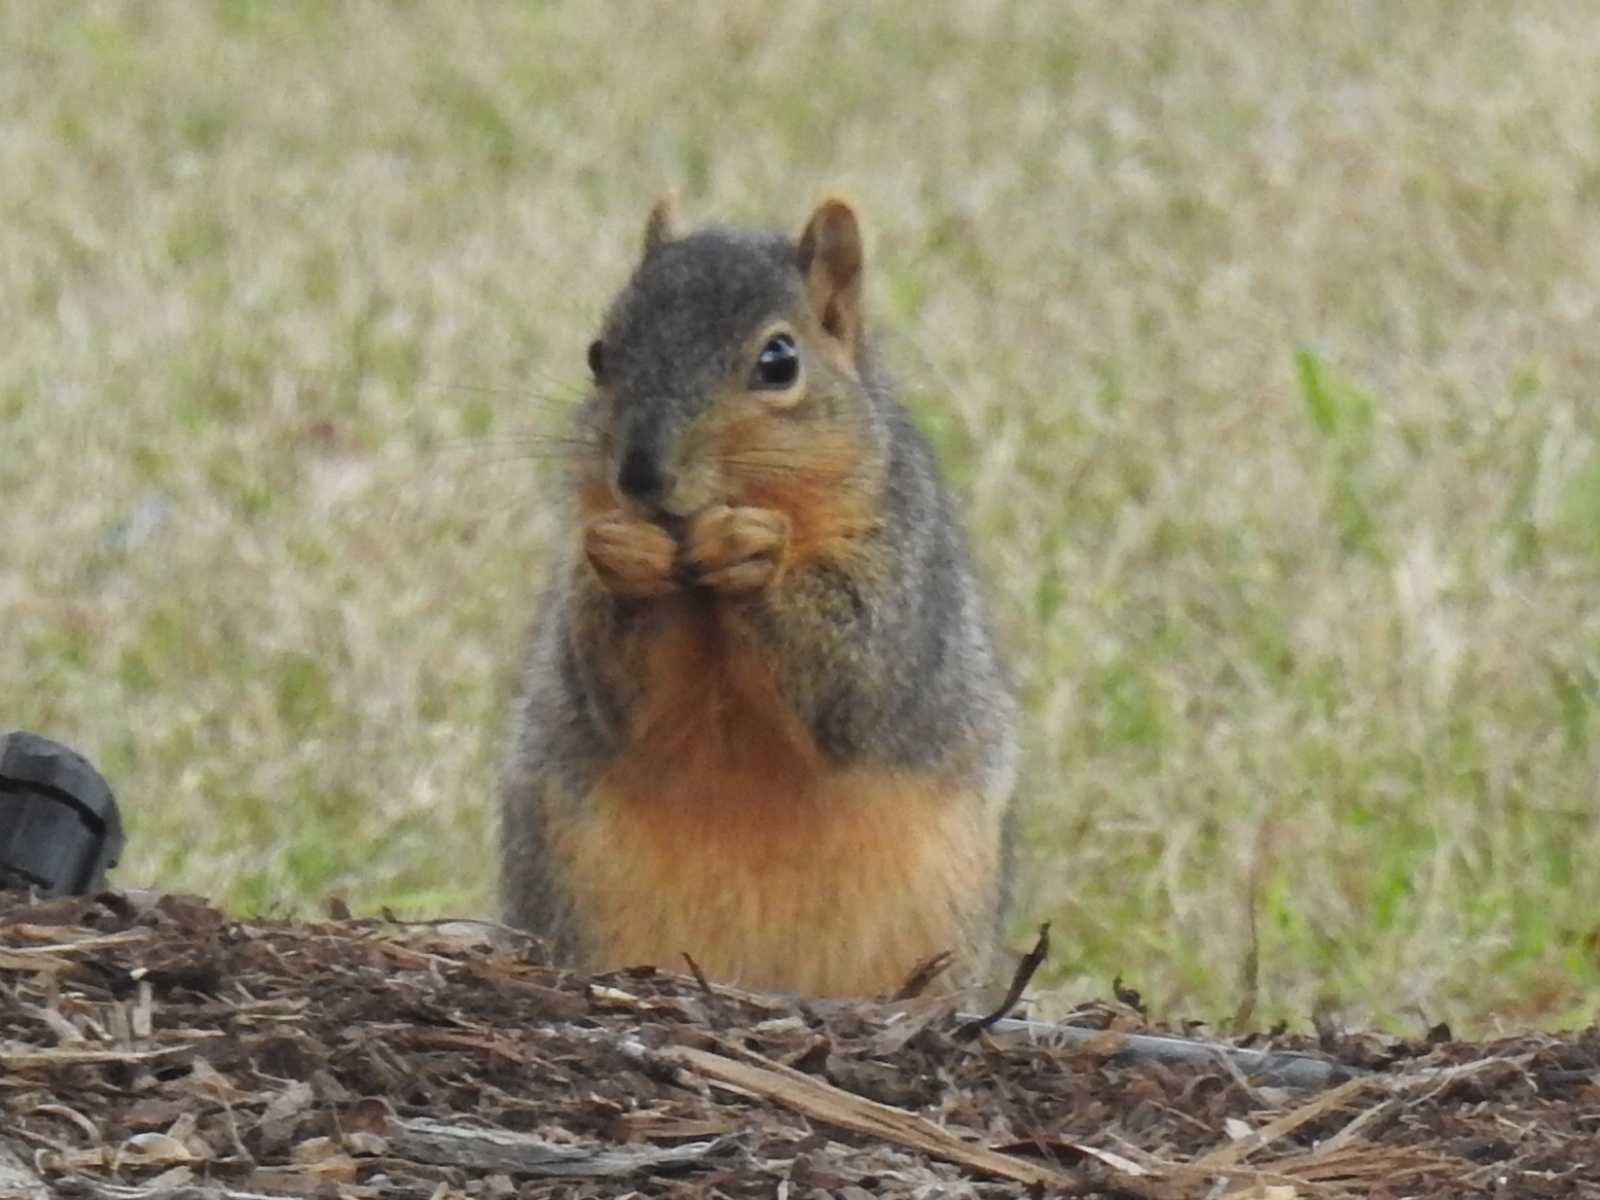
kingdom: Animalia
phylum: Chordata
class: Mammalia
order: Rodentia
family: Sciuridae
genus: Sciurus
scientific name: Sciurus niger
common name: Fox squirrel
